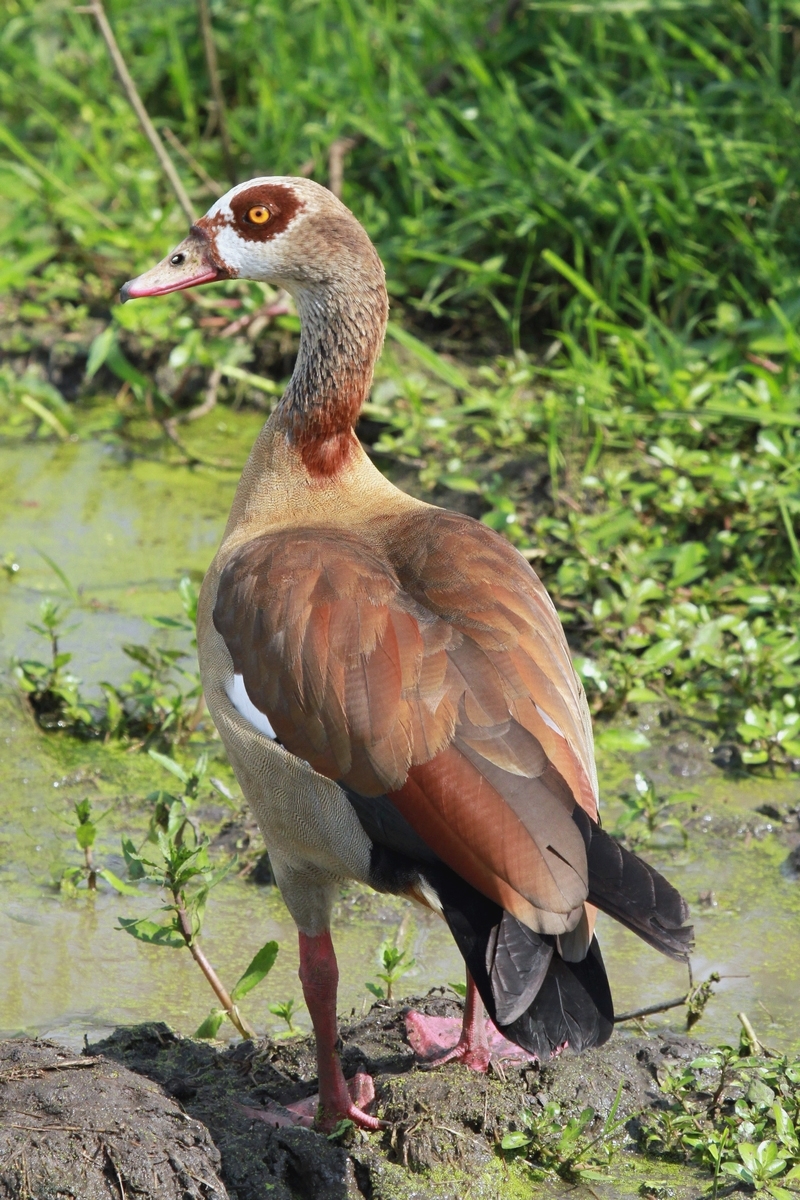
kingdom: Animalia
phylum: Chordata
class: Aves
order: Anseriformes
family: Anatidae
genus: Alopochen
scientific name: Alopochen aegyptiaca
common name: Egyptian goose
